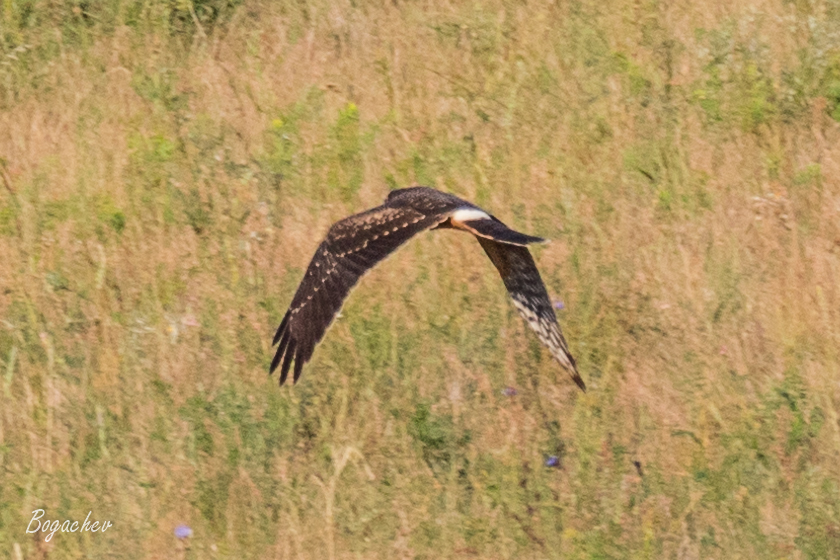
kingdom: Animalia
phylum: Chordata
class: Aves
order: Accipitriformes
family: Accipitridae
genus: Circus
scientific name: Circus pygargus
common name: Montagu's harrier
